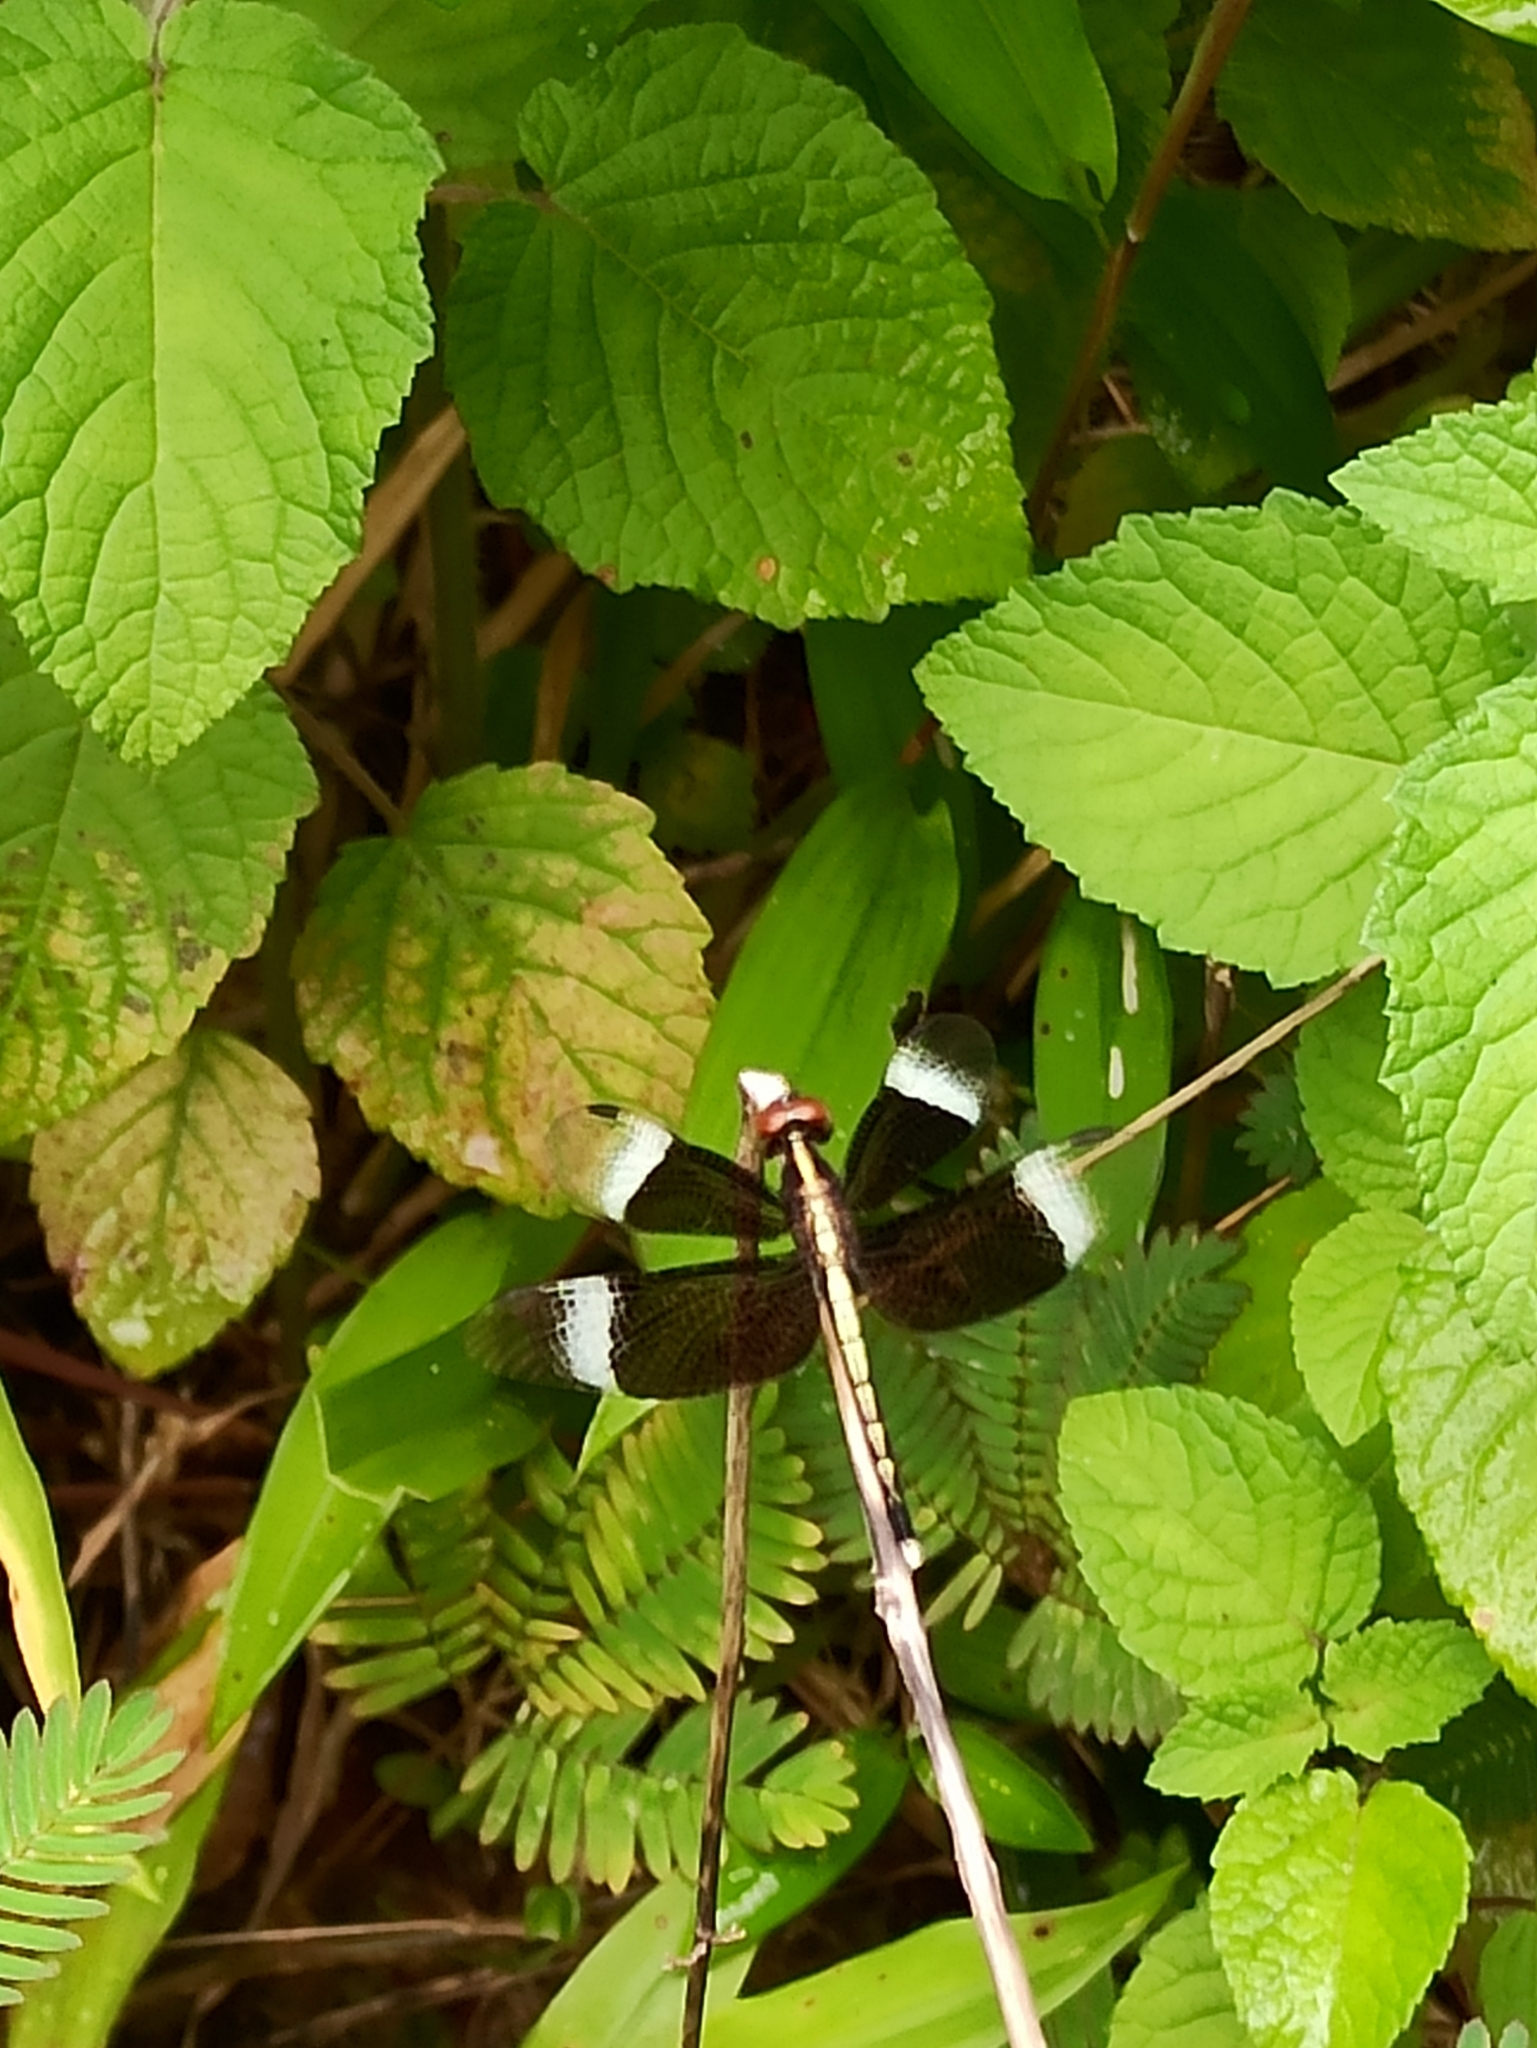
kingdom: Animalia
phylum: Arthropoda
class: Insecta
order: Odonata
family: Libellulidae
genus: Neurothemis
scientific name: Neurothemis tullia
